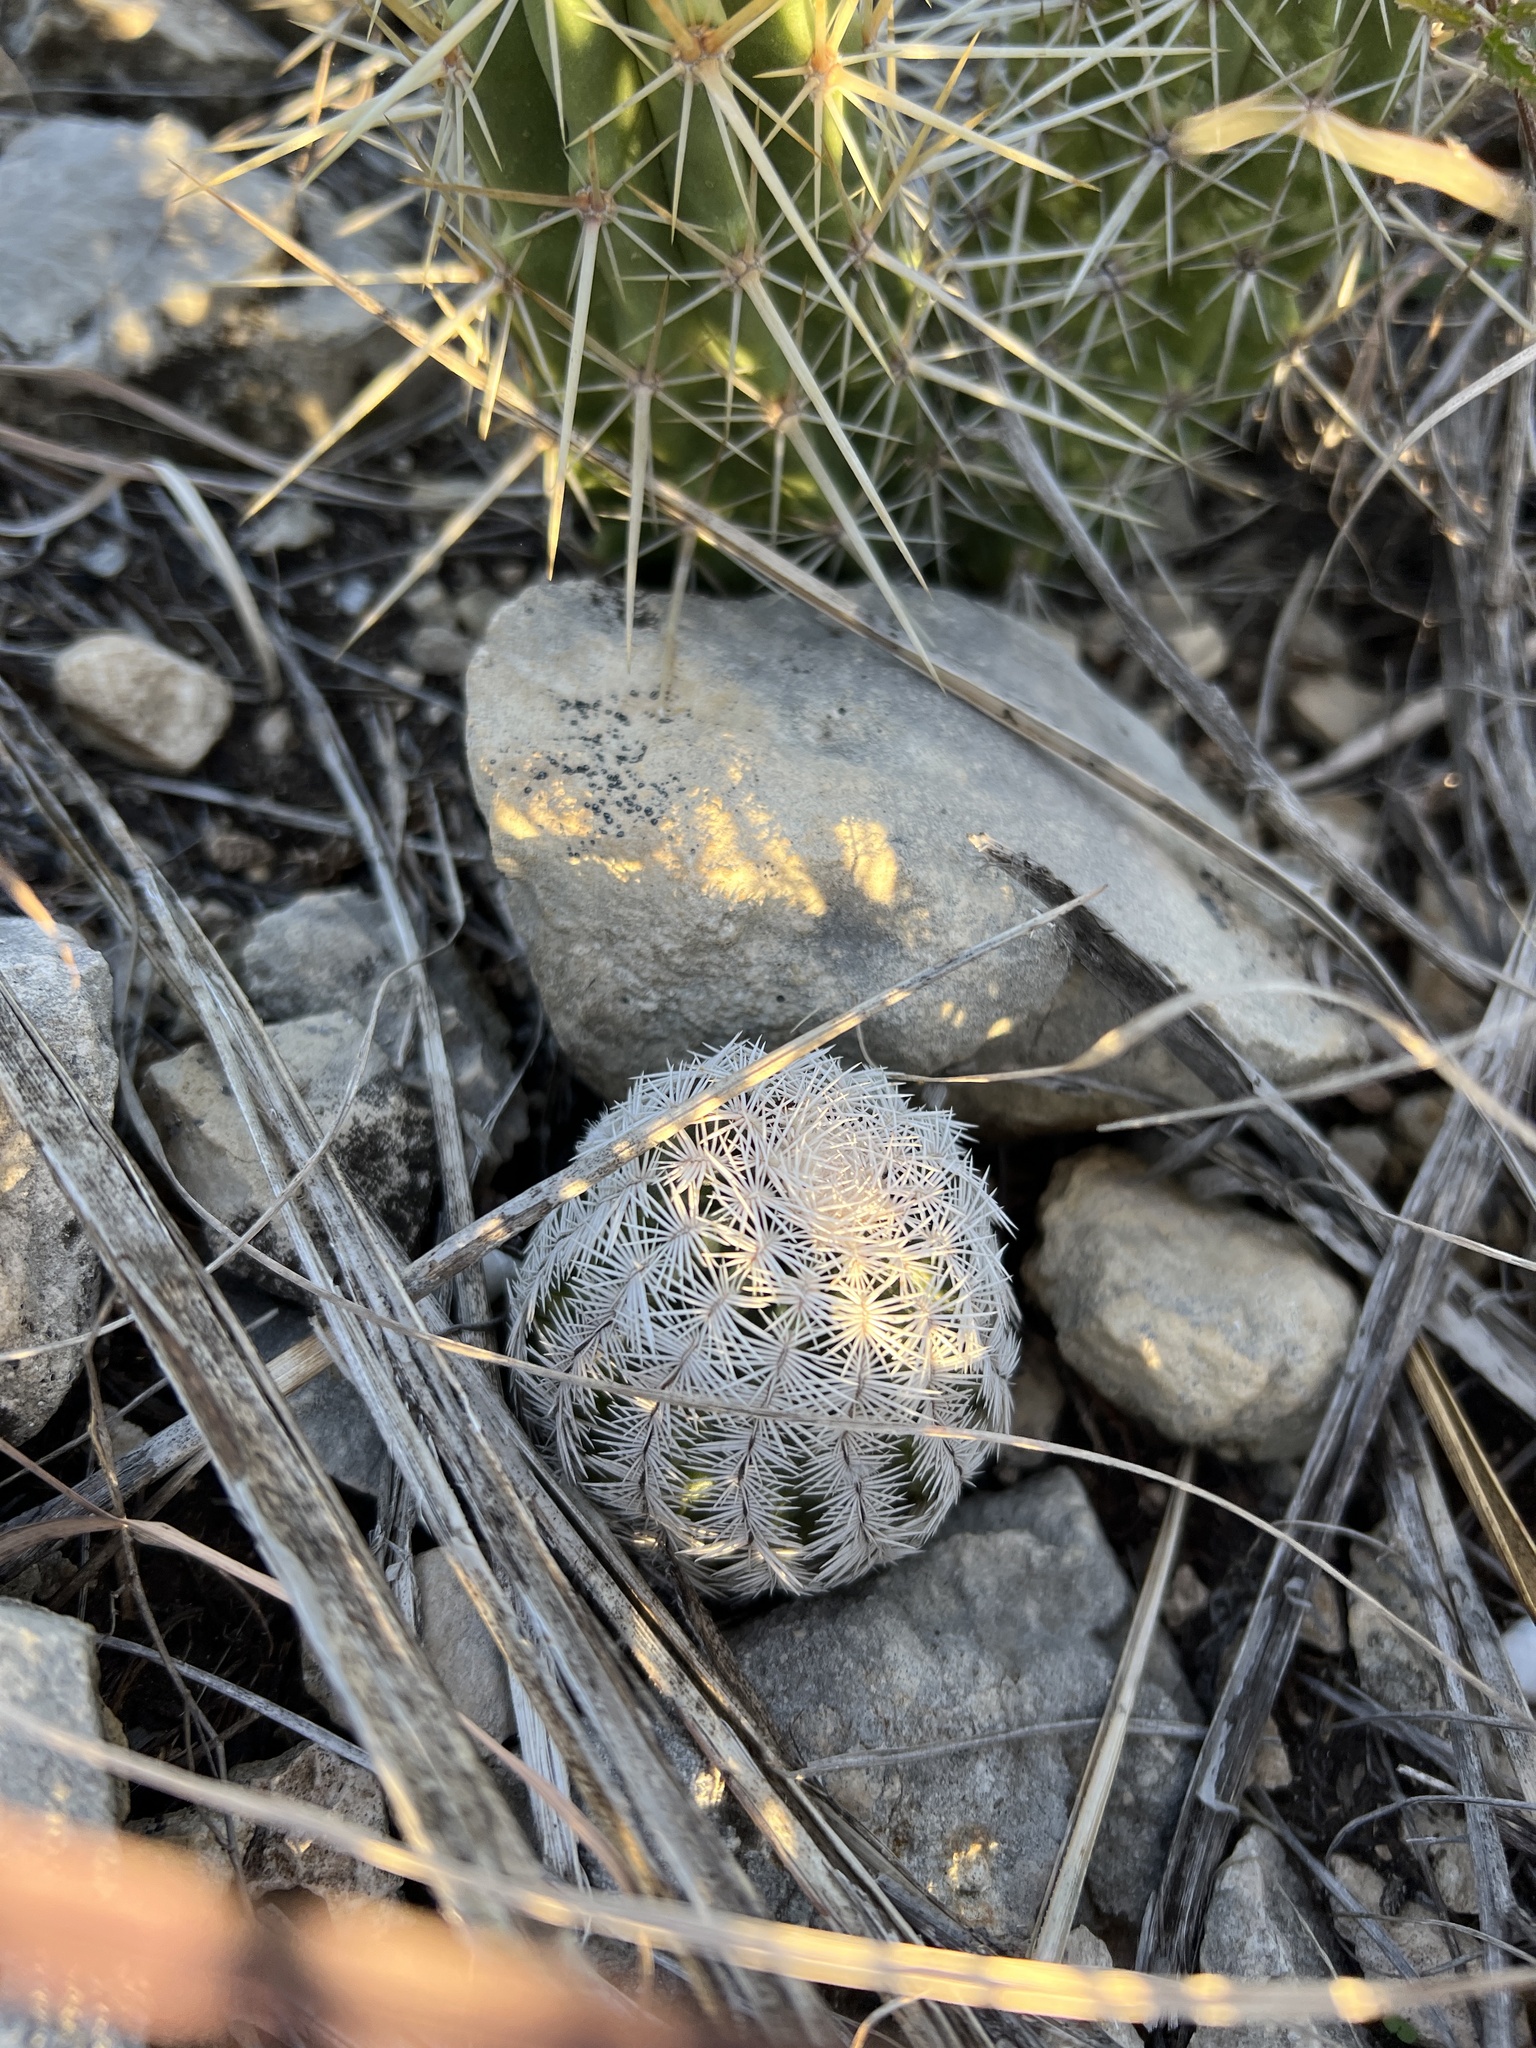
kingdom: Plantae
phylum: Tracheophyta
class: Magnoliopsida
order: Caryophyllales
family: Cactaceae
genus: Echinocereus
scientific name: Echinocereus reichenbachii
